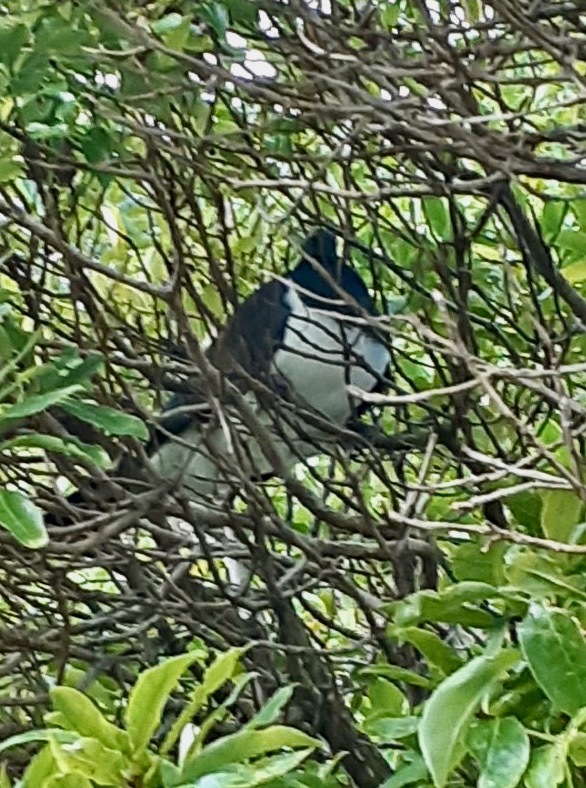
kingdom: Animalia
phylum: Chordata
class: Aves
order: Columbiformes
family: Columbidae
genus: Hemiphaga
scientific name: Hemiphaga novaeseelandiae
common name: New zealand pigeon
